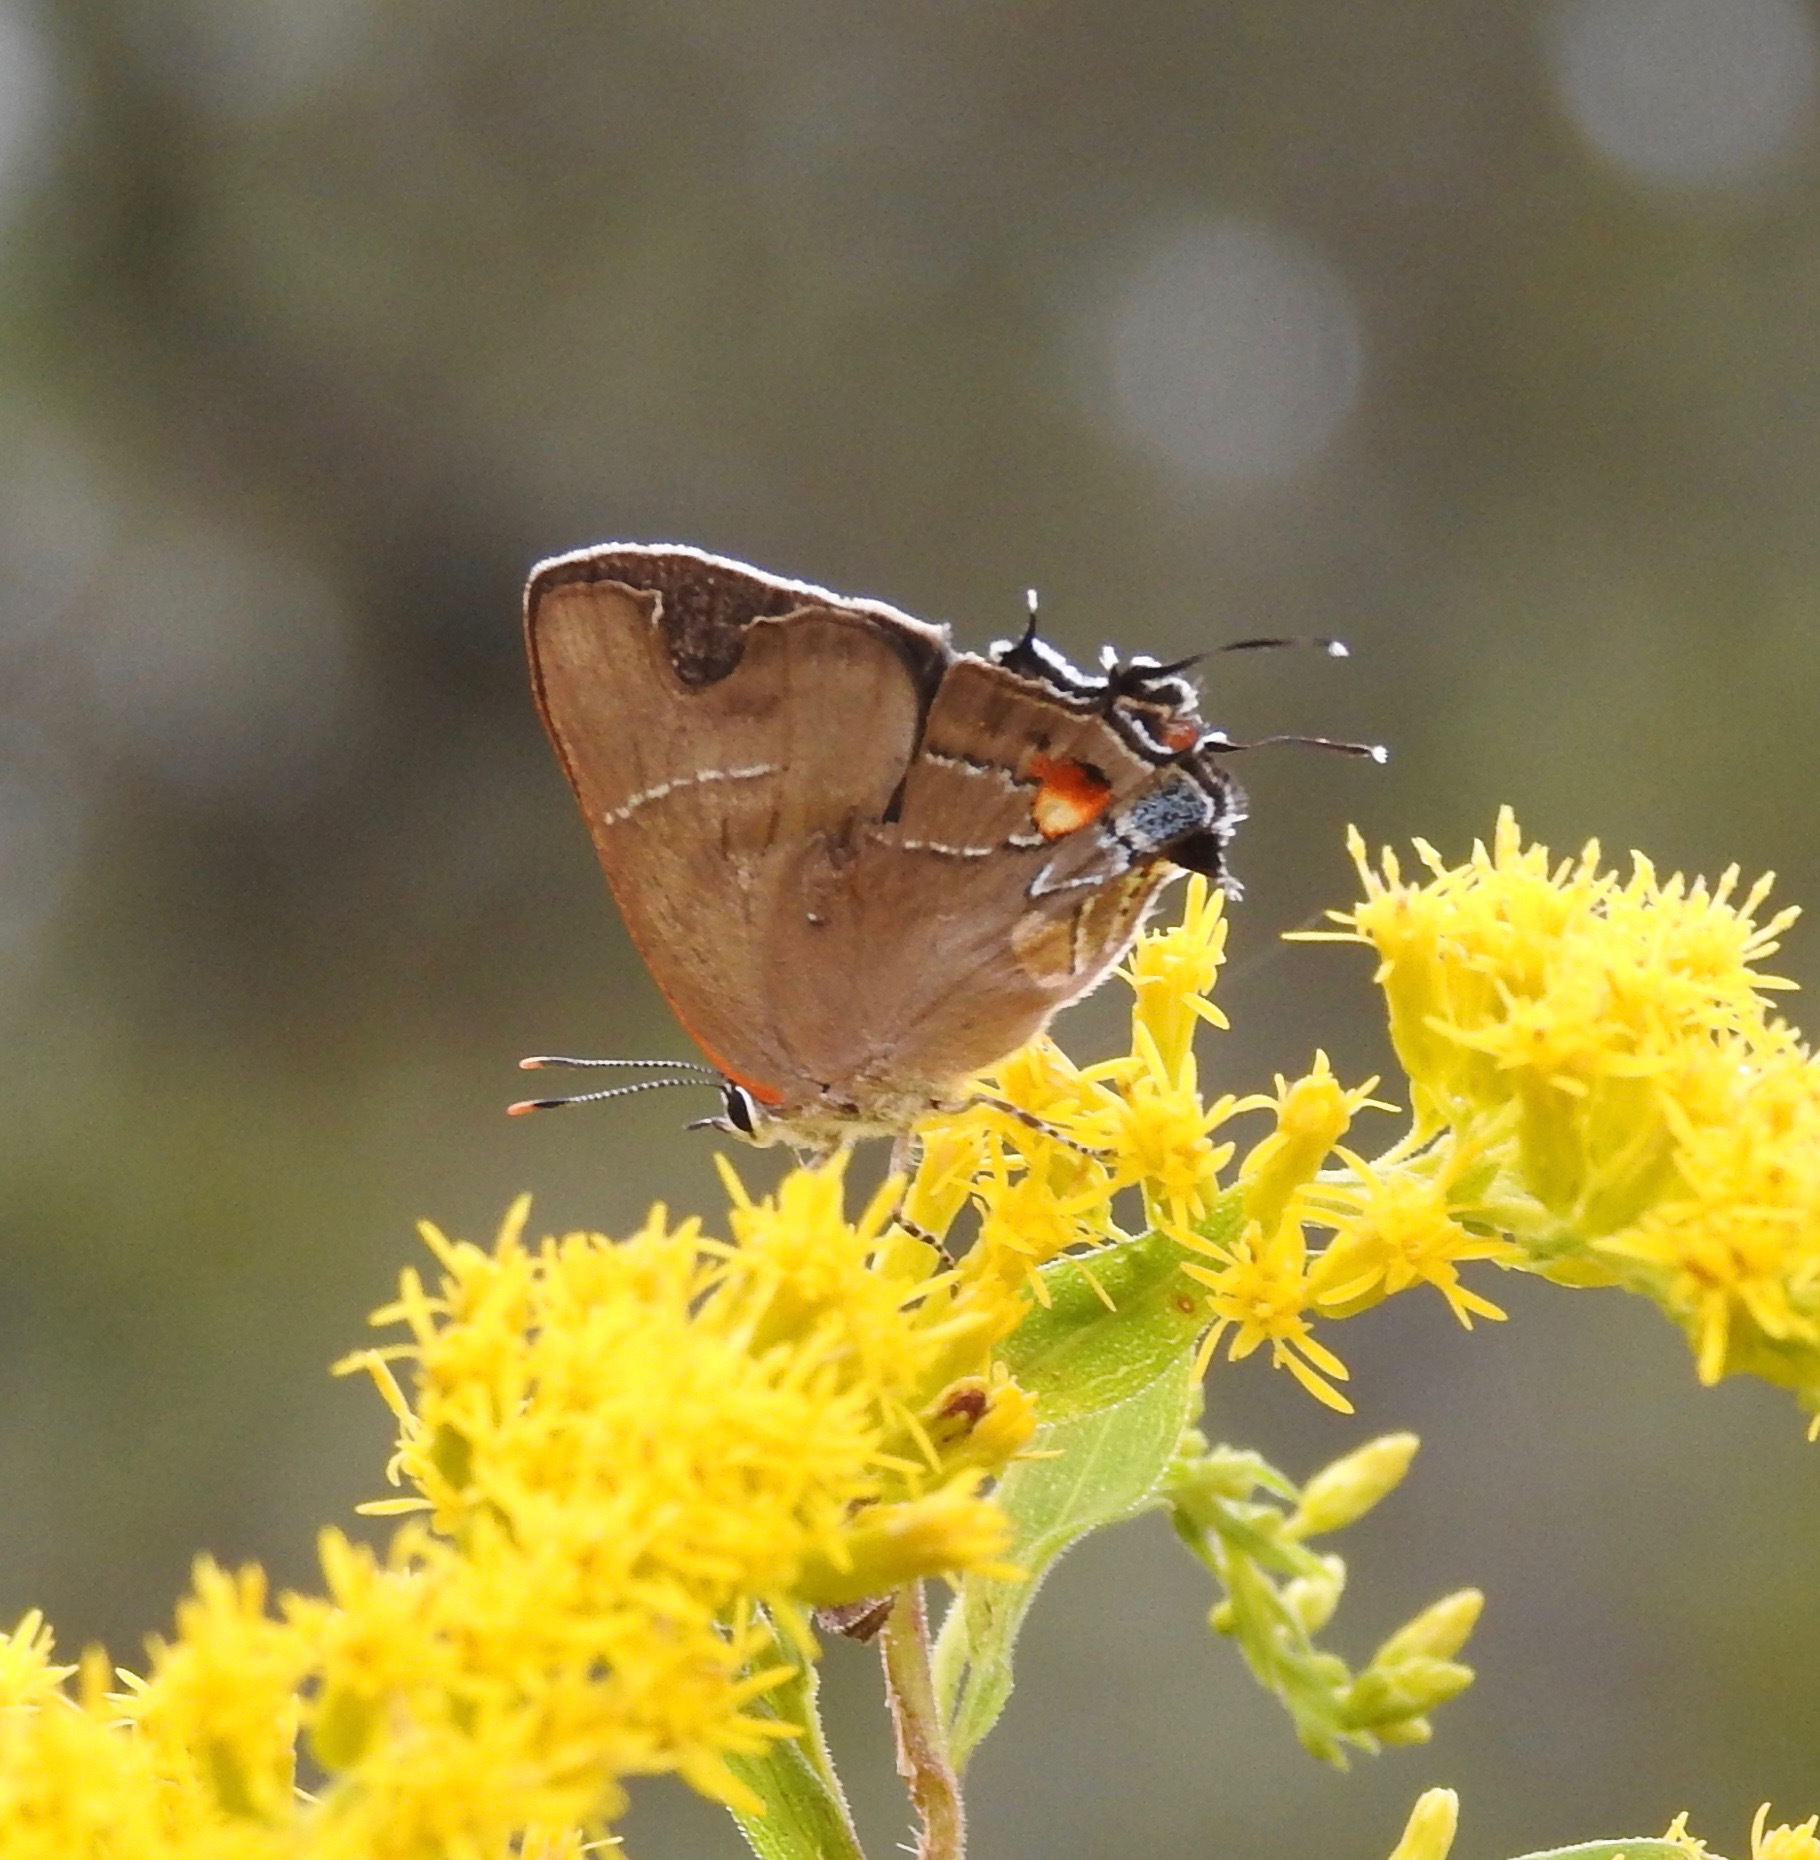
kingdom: Animalia
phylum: Arthropoda
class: Insecta
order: Lepidoptera
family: Lycaenidae
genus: Parrhasius
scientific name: Parrhasius m-album
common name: White m hairstreak
